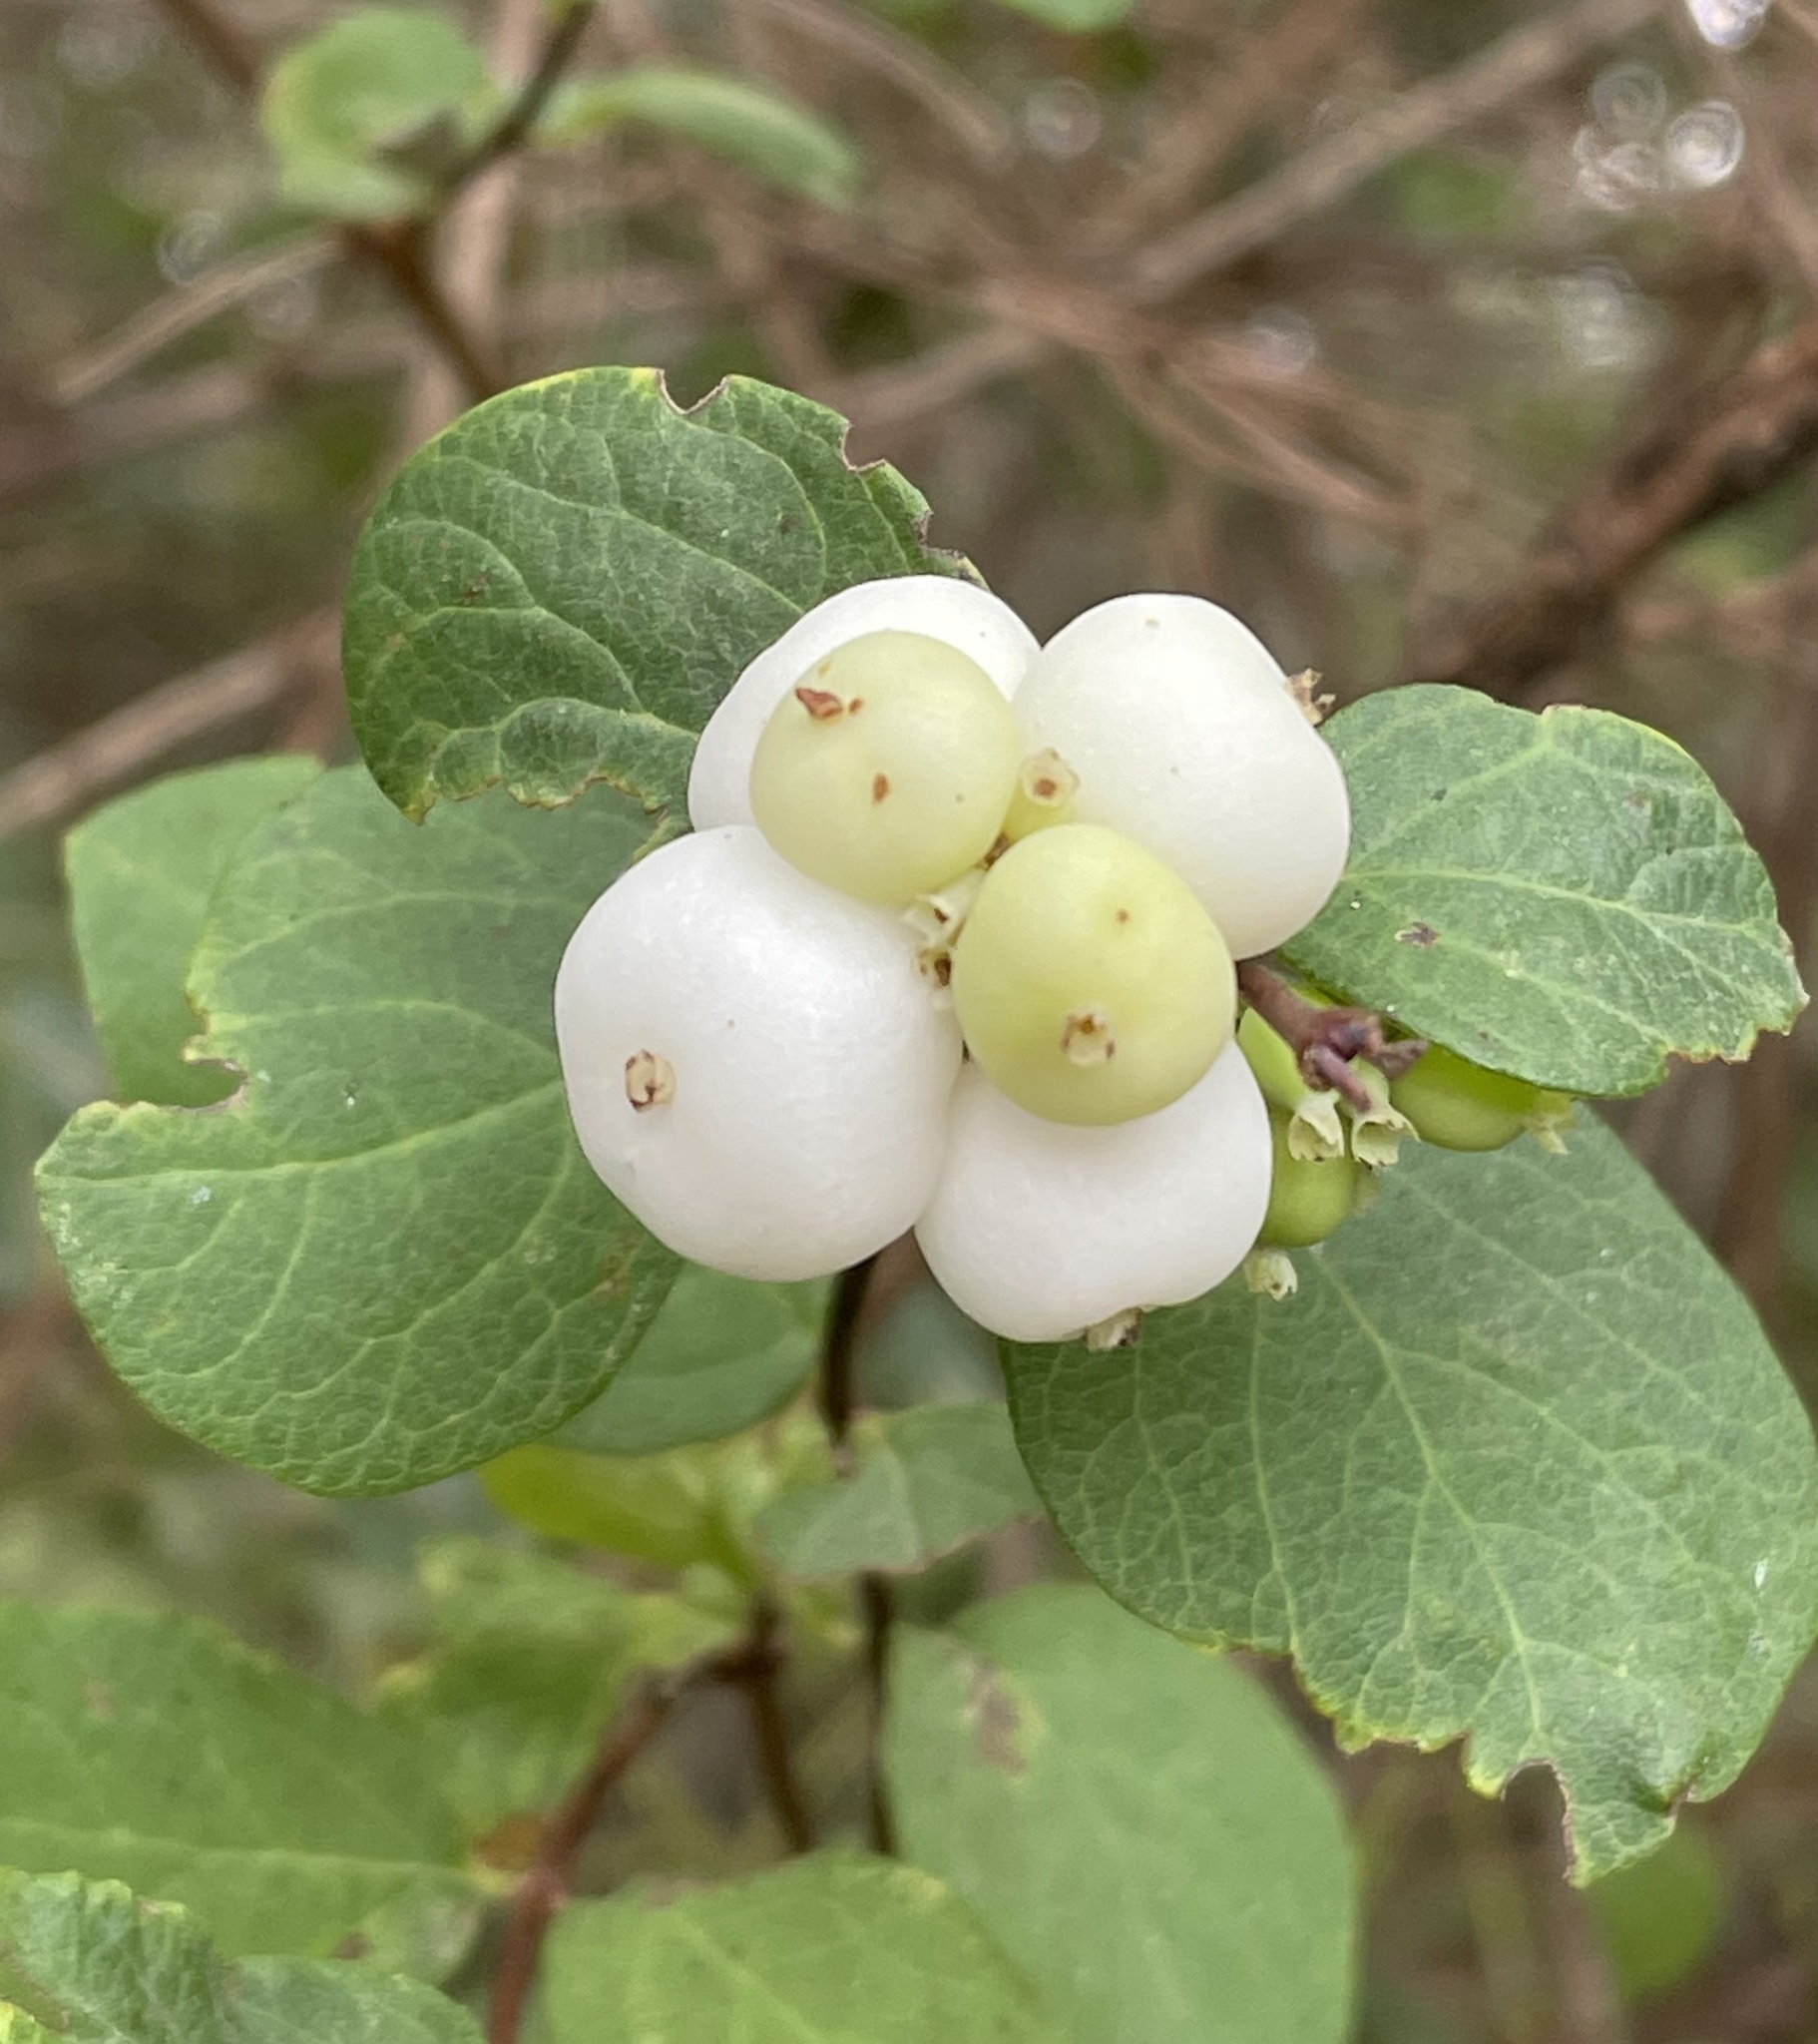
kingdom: Plantae
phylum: Tracheophyta
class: Magnoliopsida
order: Dipsacales
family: Caprifoliaceae
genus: Symphoricarpos
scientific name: Symphoricarpos albus
